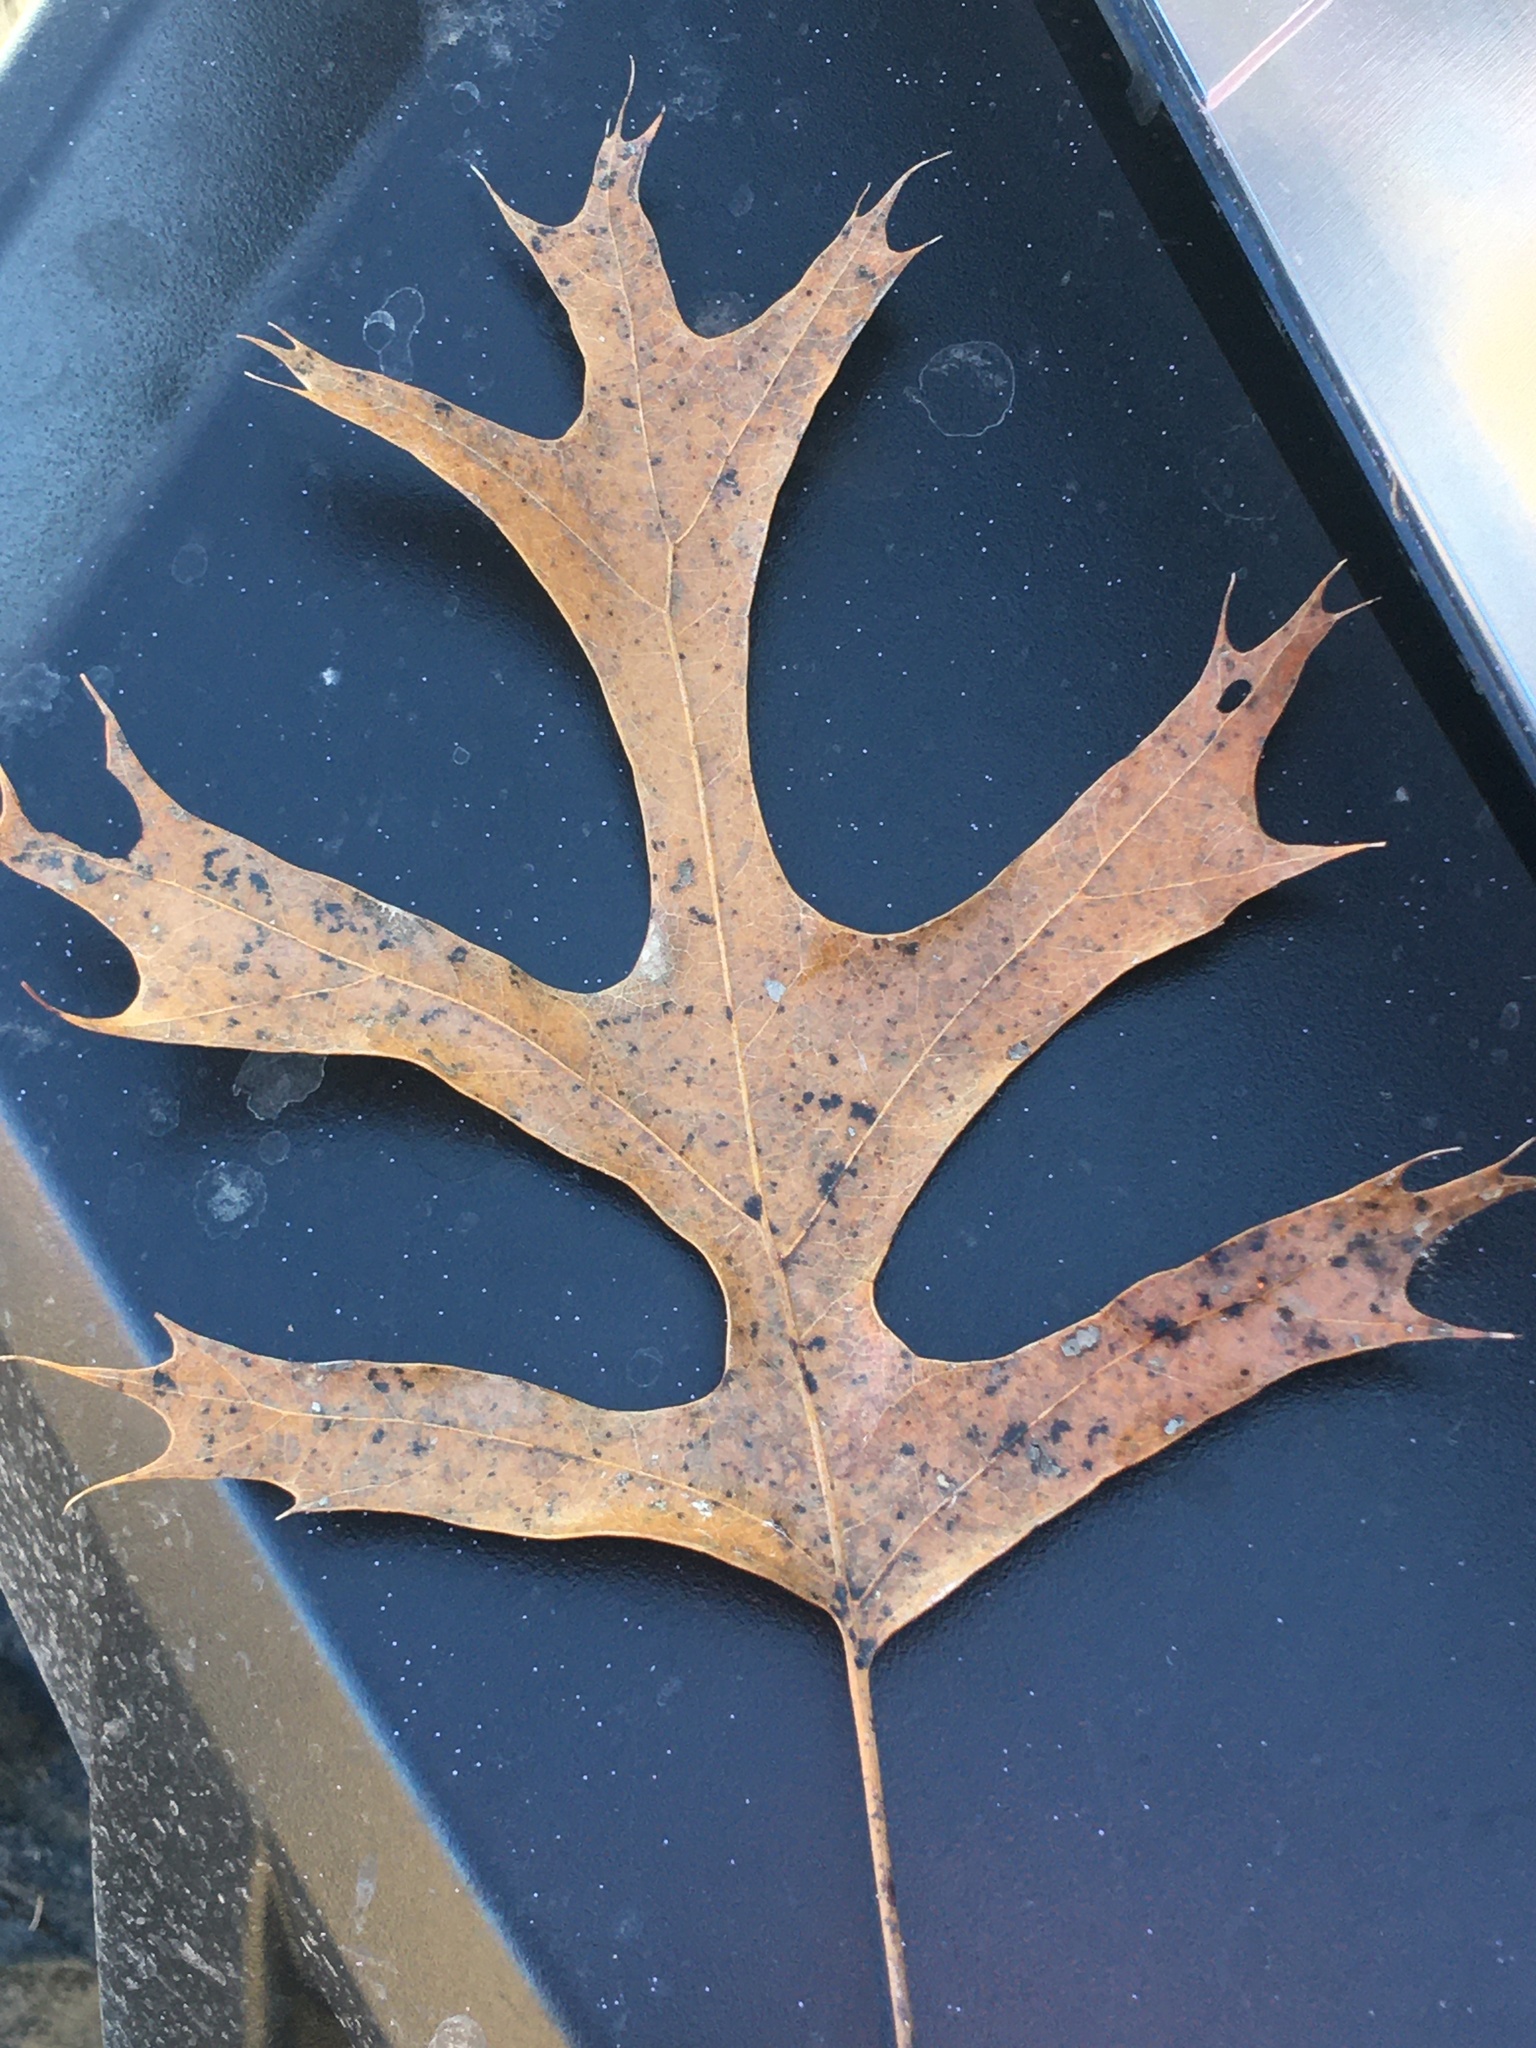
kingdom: Plantae
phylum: Tracheophyta
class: Magnoliopsida
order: Fagales
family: Fagaceae
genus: Quercus
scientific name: Quercus palustris
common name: Pin oak
